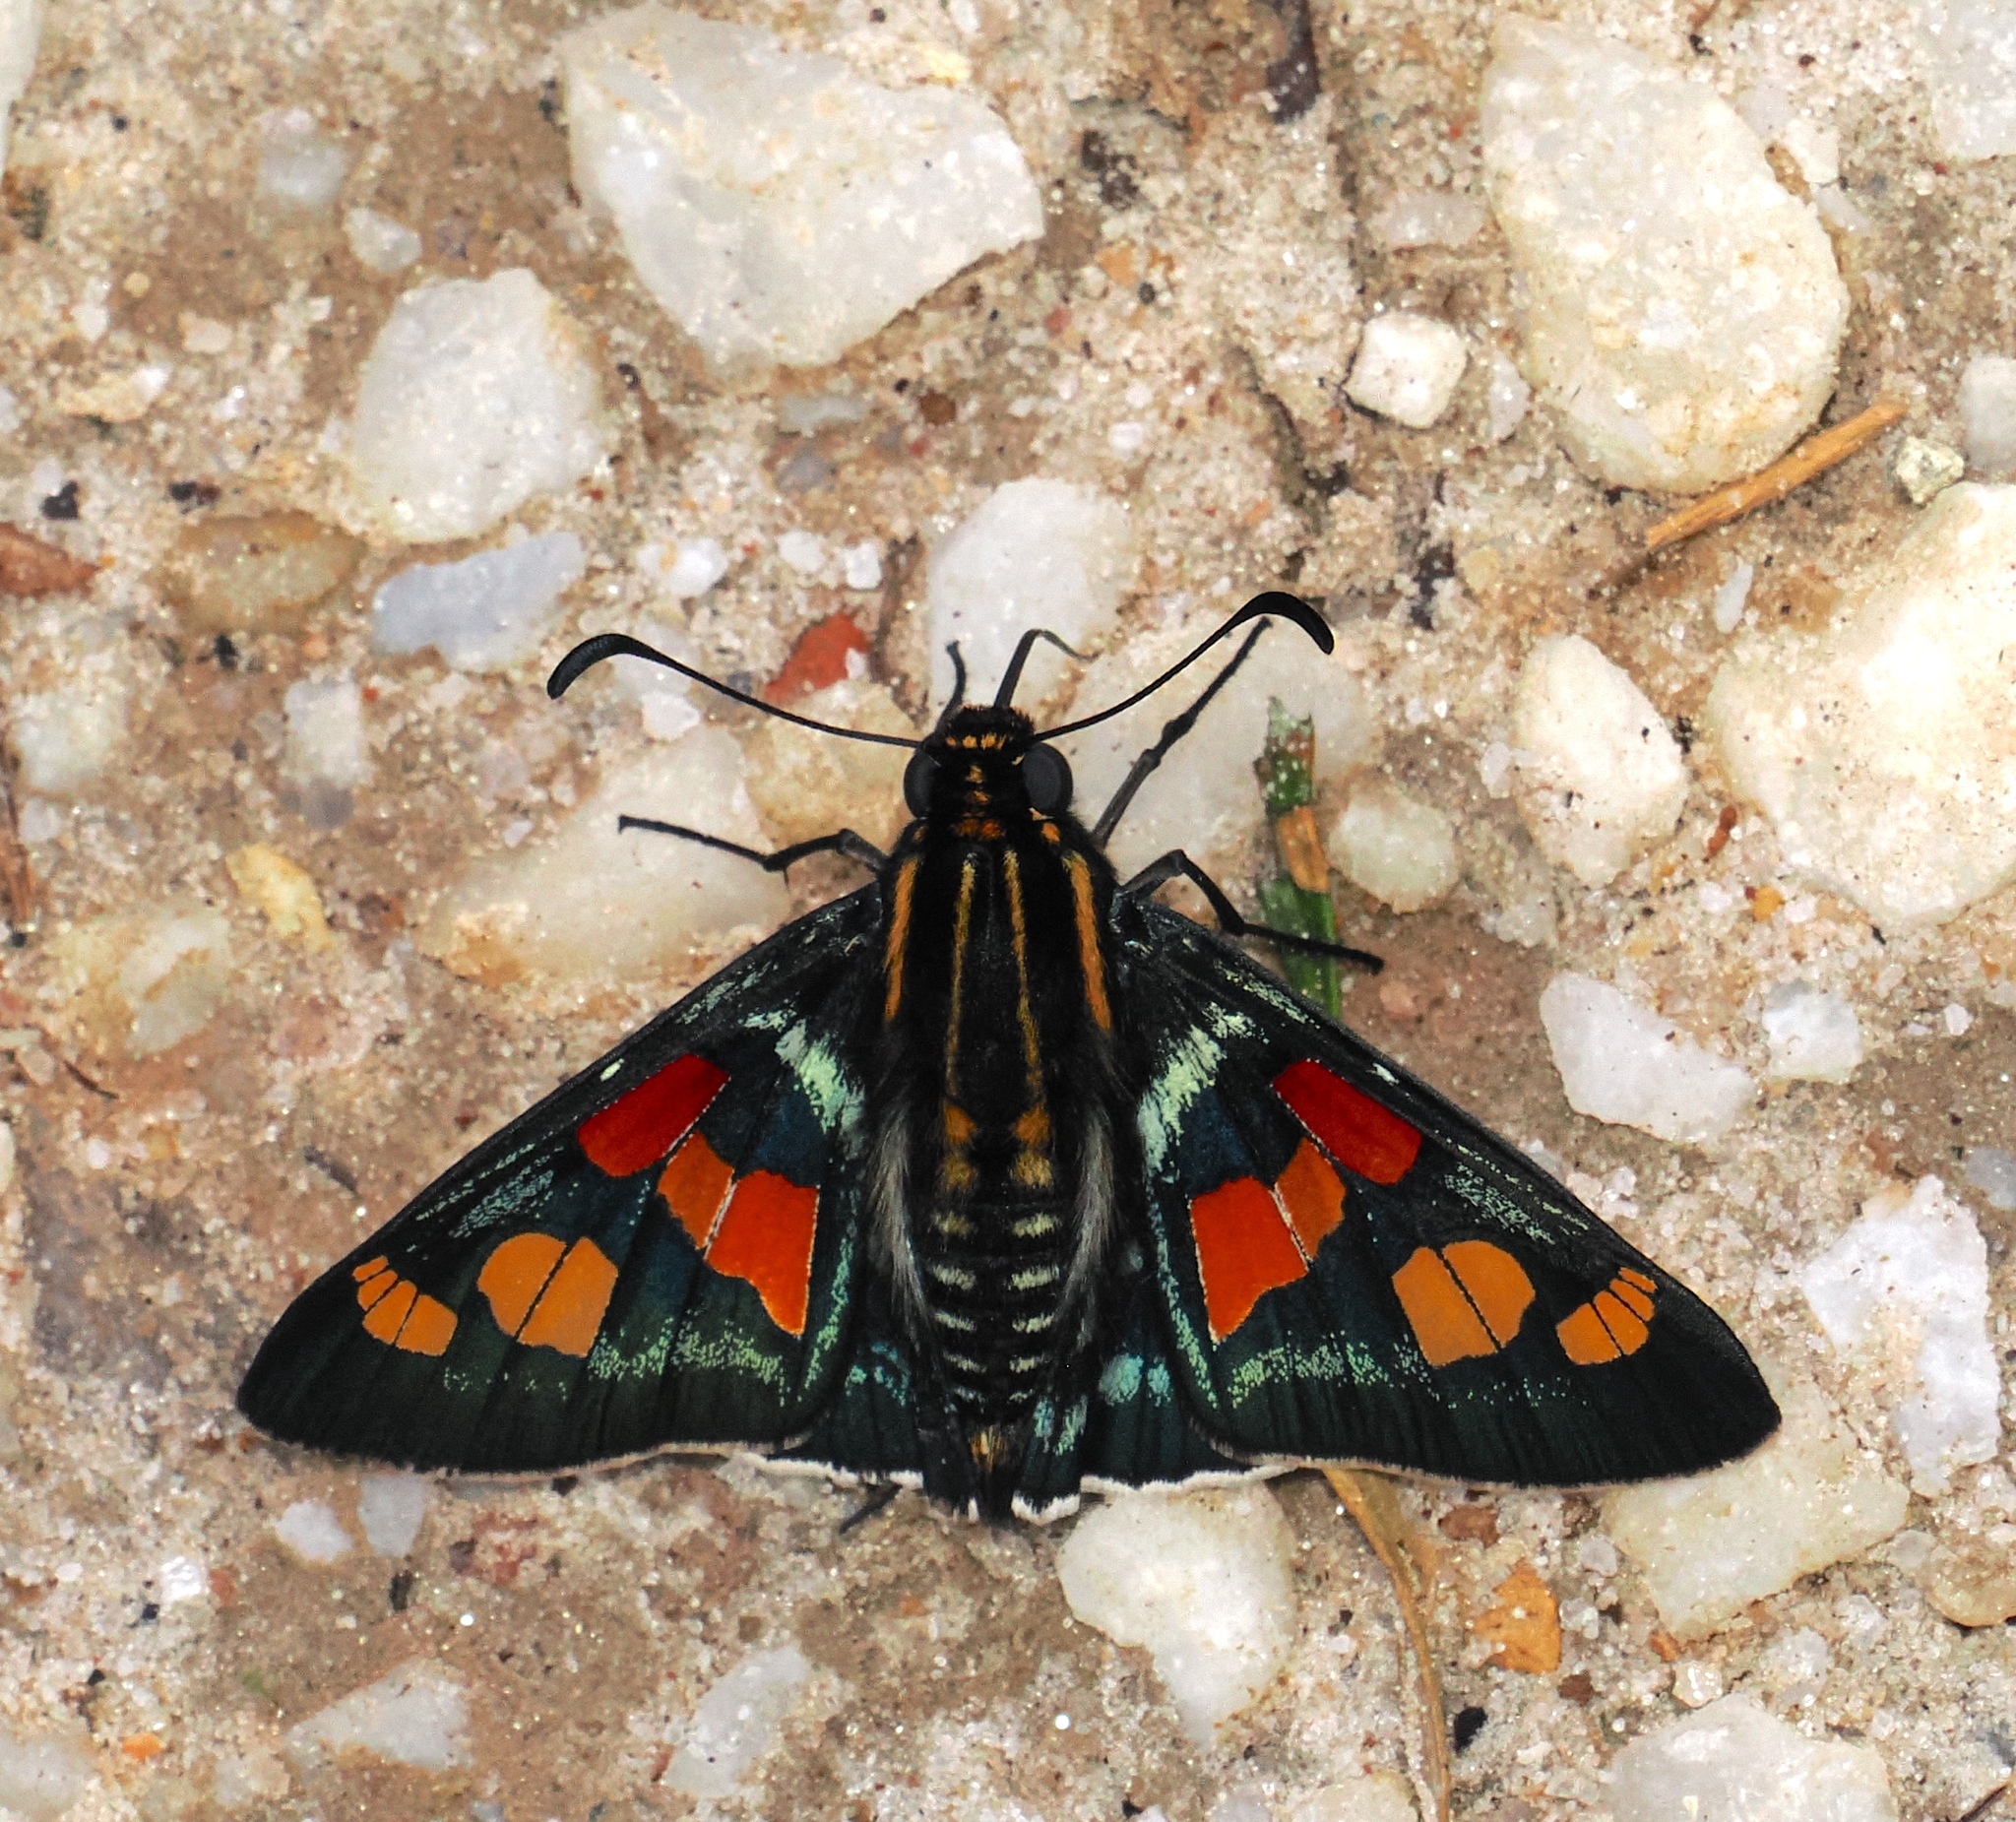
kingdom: Animalia
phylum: Arthropoda
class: Insecta
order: Lepidoptera
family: Hesperiidae
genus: Mimoniades
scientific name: Mimoniades versicolor
